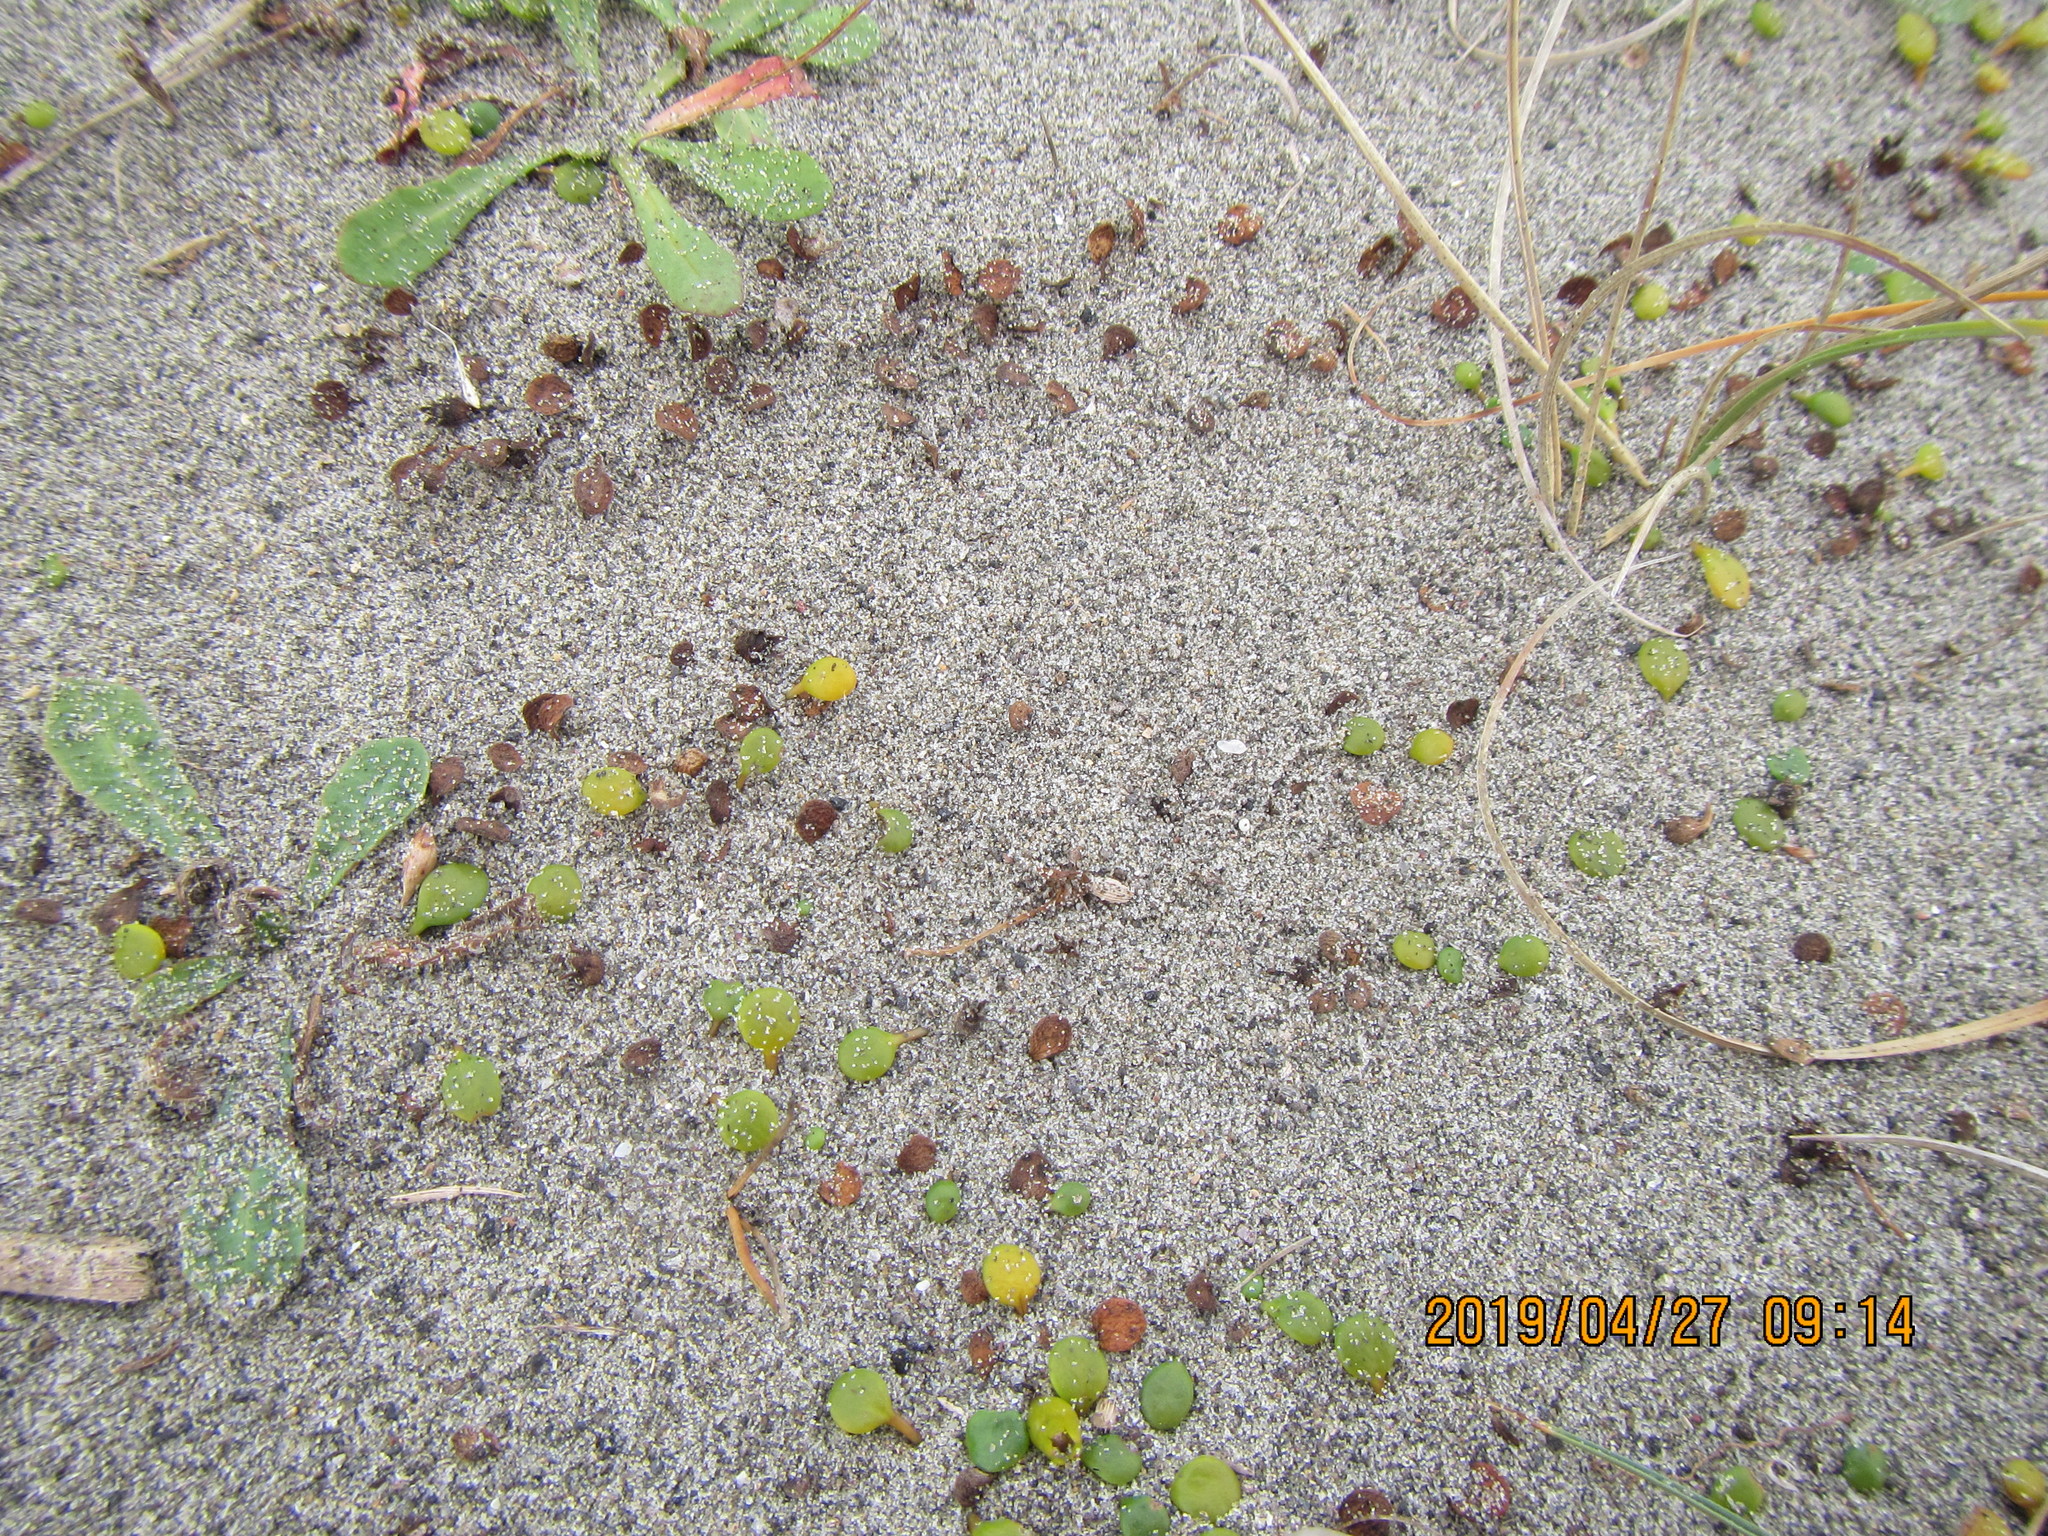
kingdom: Plantae
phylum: Tracheophyta
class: Magnoliopsida
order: Asterales
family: Goodeniaceae
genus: Goodenia
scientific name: Goodenia heenanii
